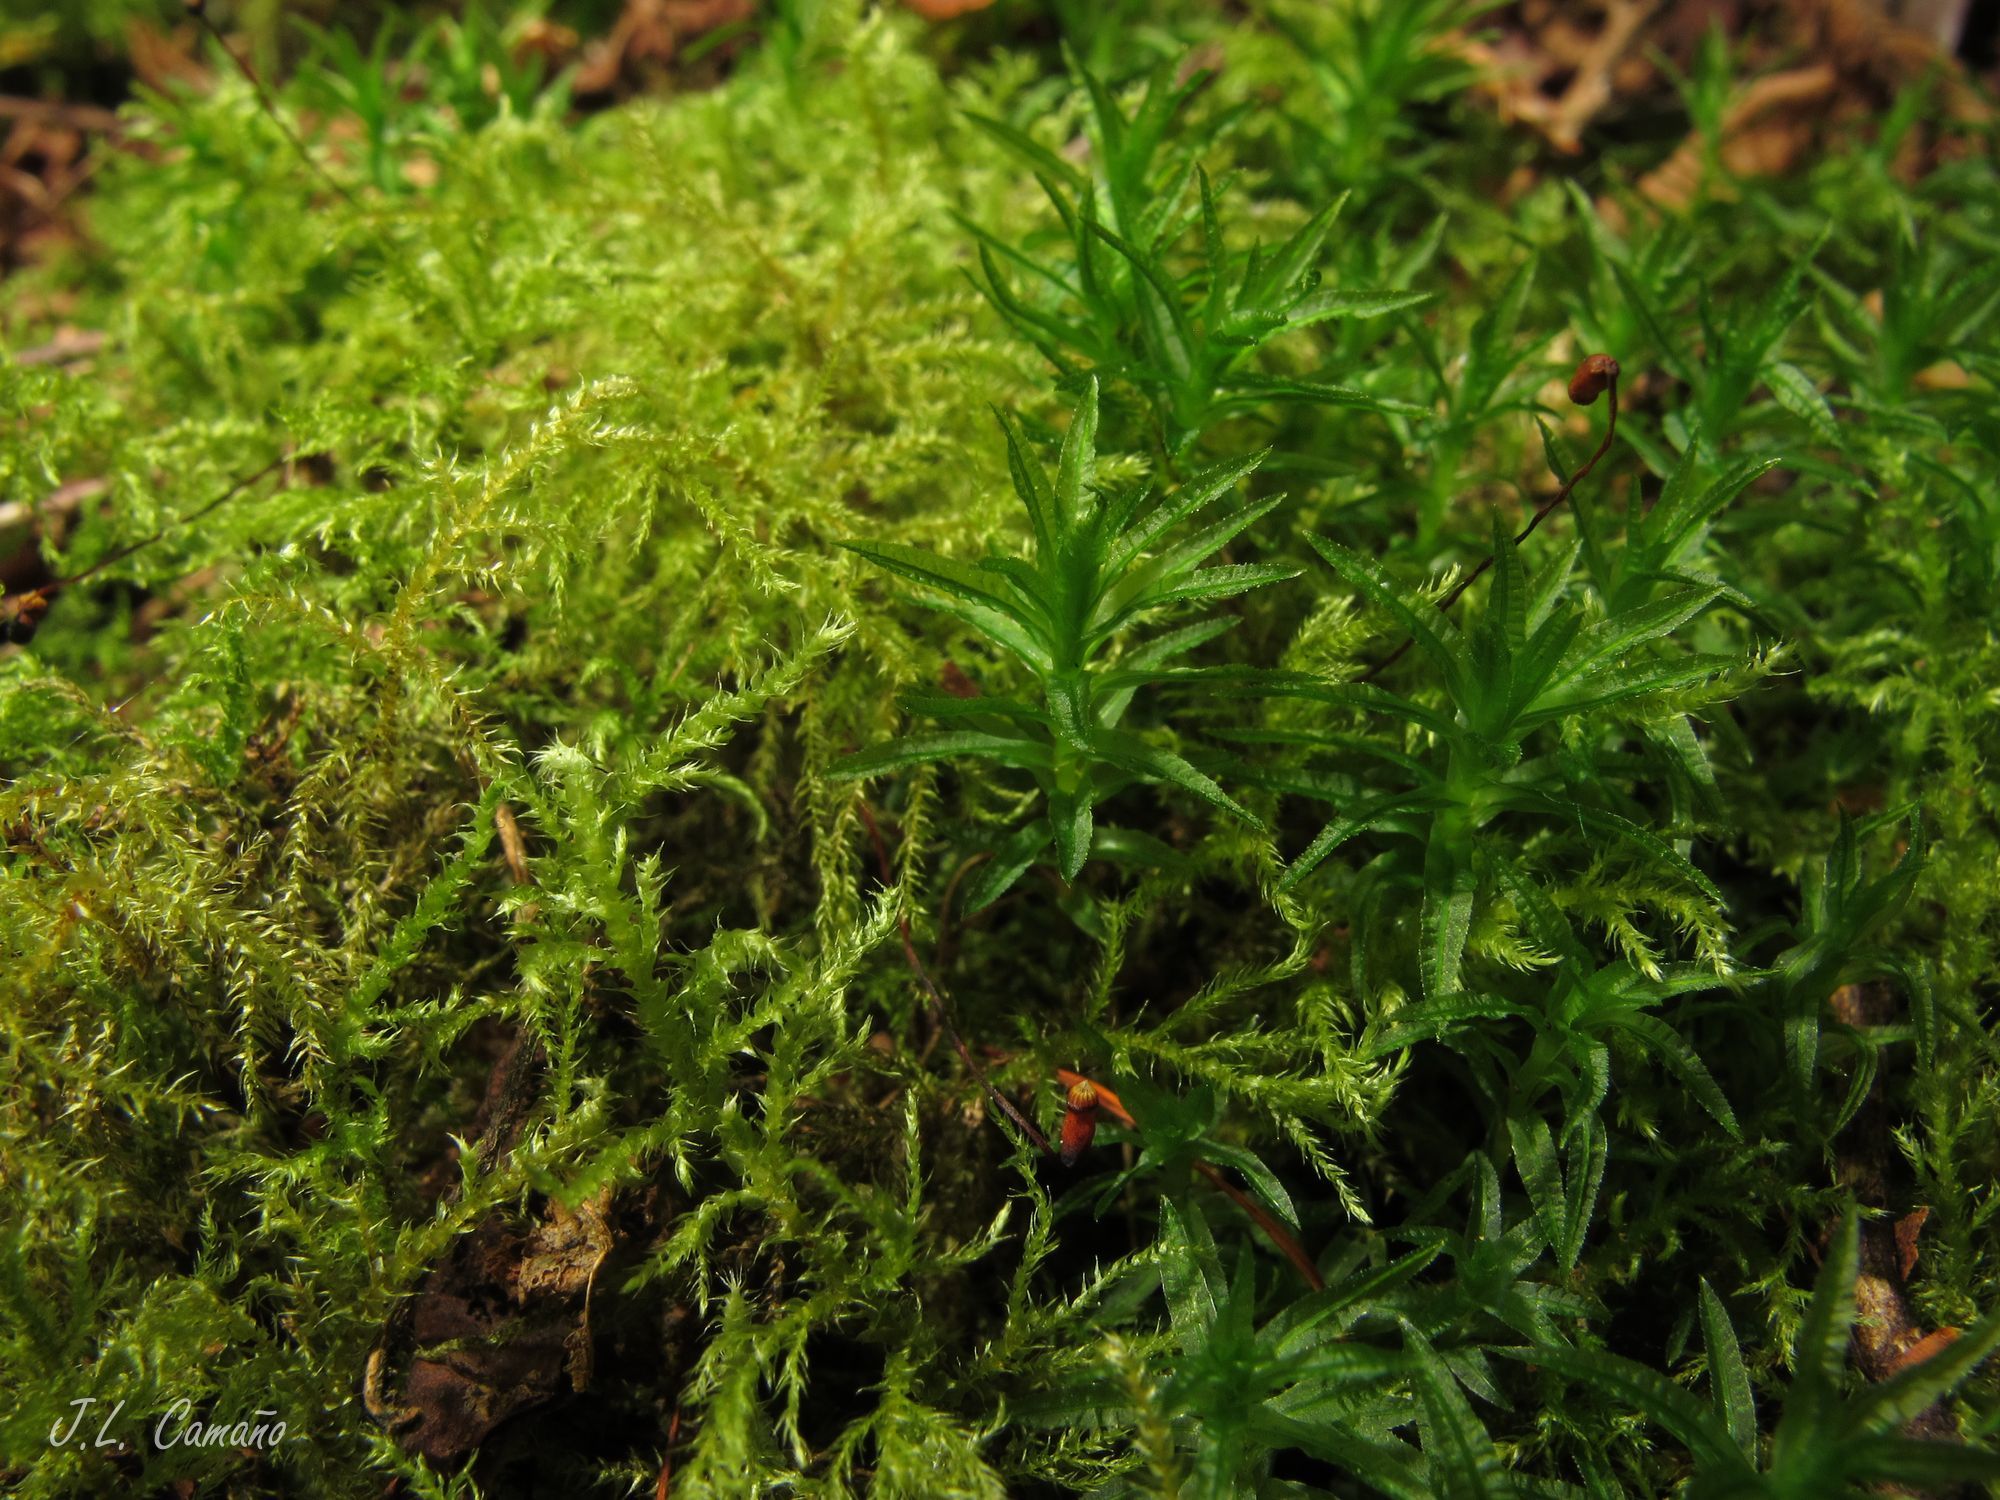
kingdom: Plantae
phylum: Bryophyta
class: Polytrichopsida
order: Polytrichales
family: Polytrichaceae
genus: Atrichum
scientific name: Atrichum undulatum
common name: Common smoothcap
